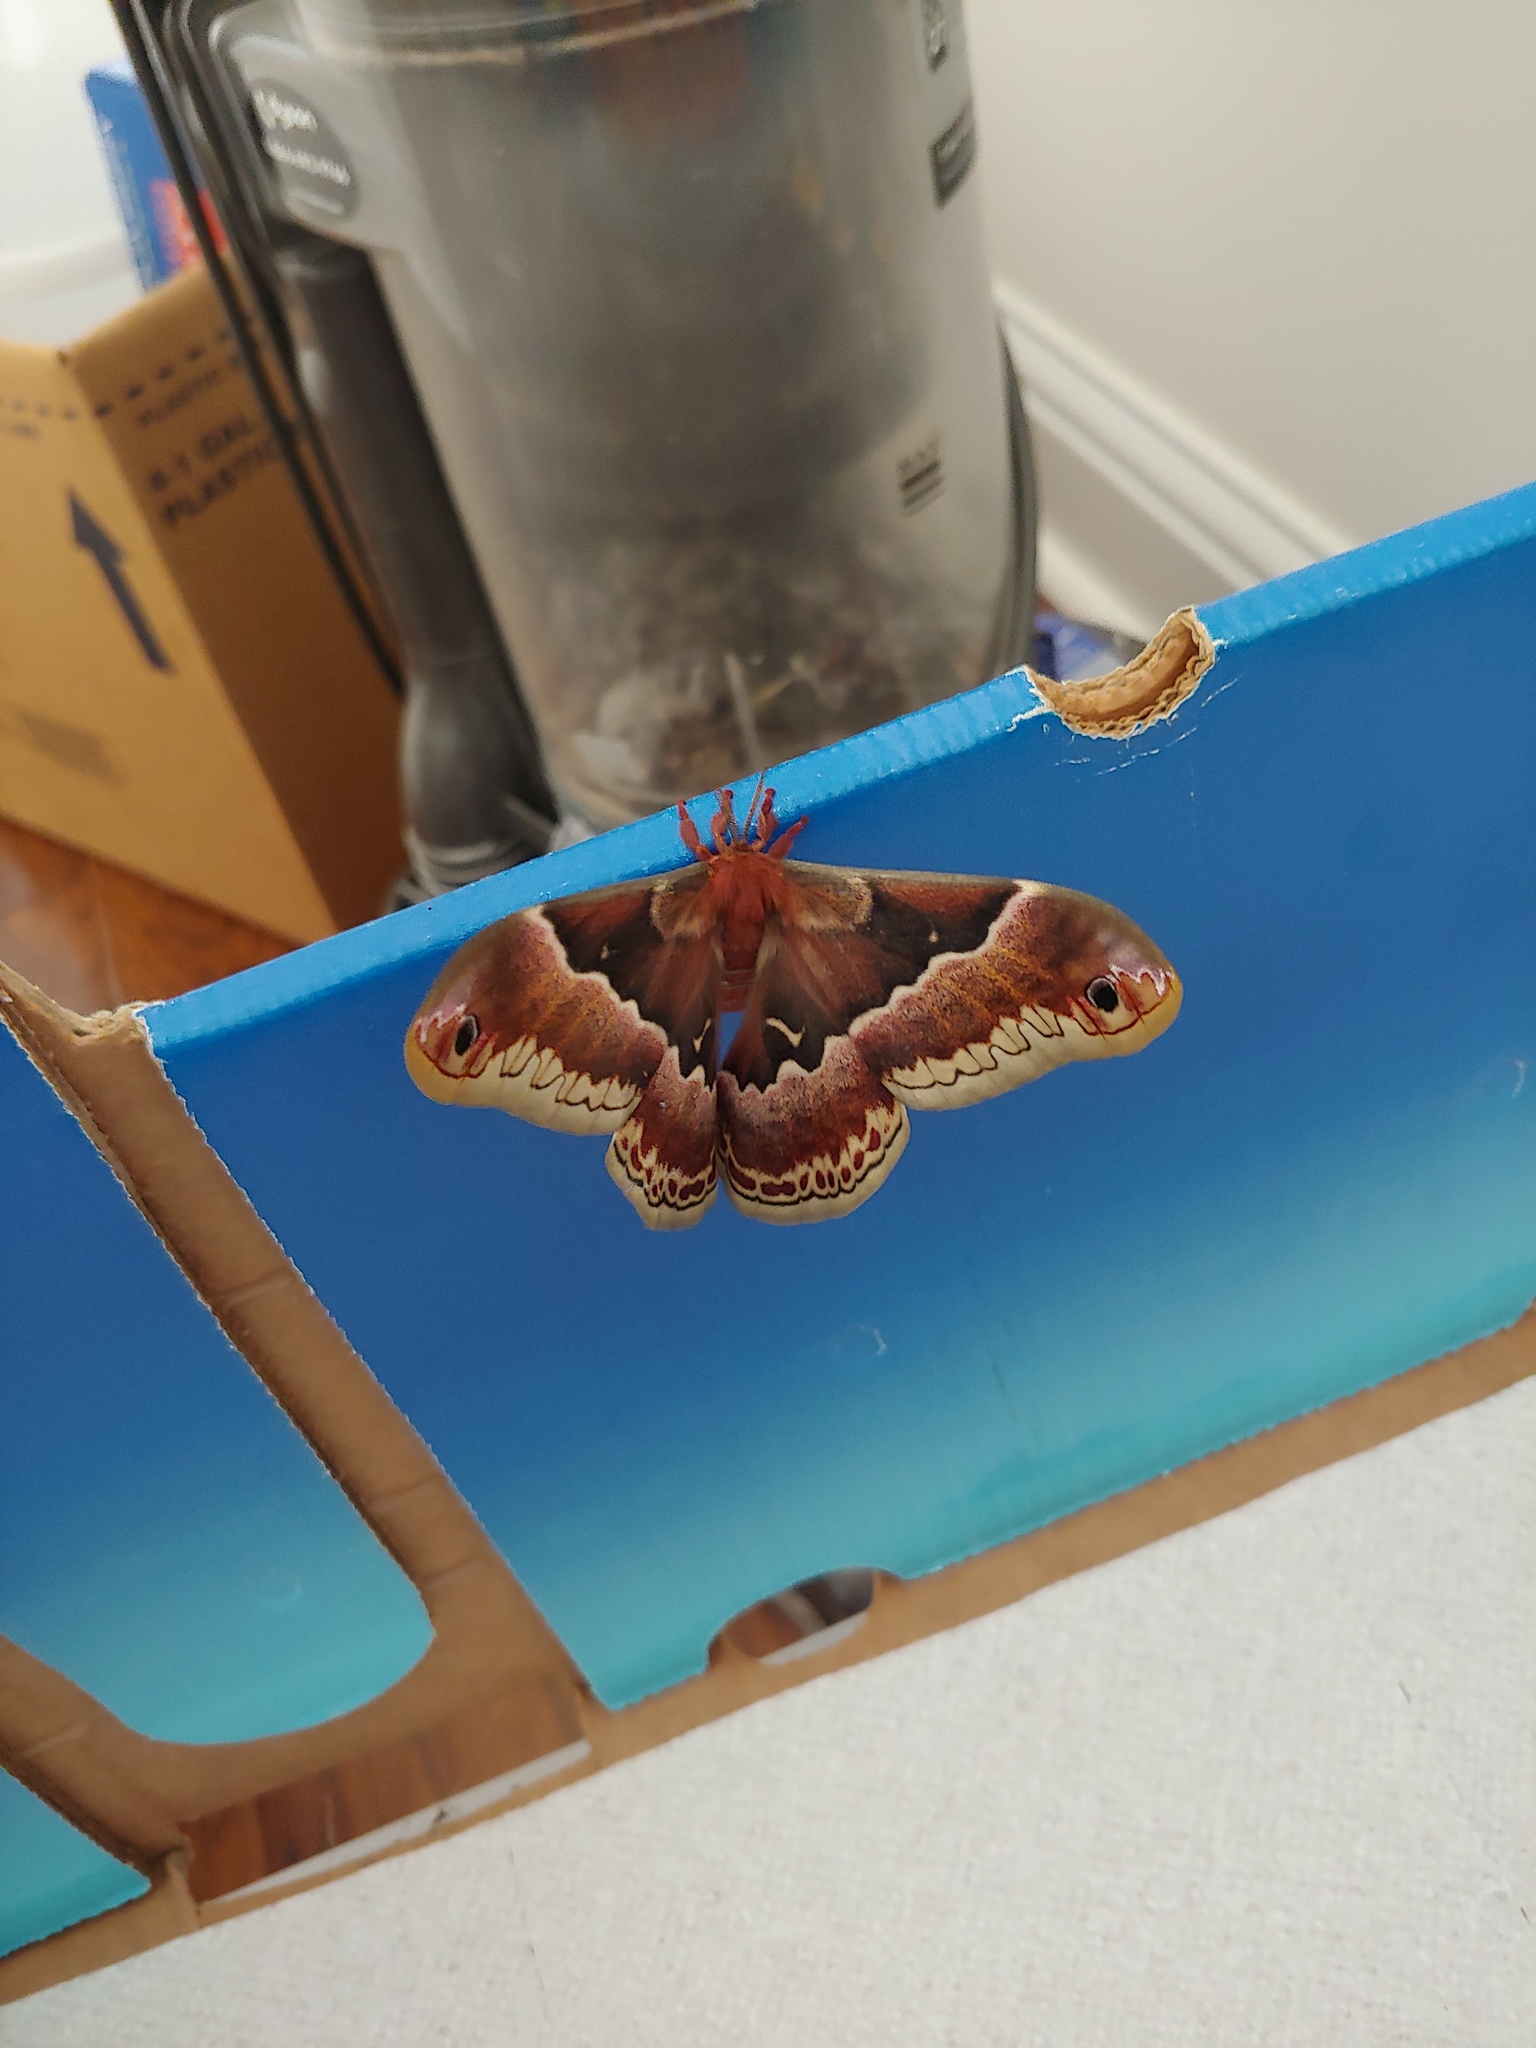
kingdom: Animalia
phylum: Arthropoda
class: Insecta
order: Lepidoptera
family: Saturniidae
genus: Callosamia
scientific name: Callosamia promethea
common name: Promethea silkmoth
